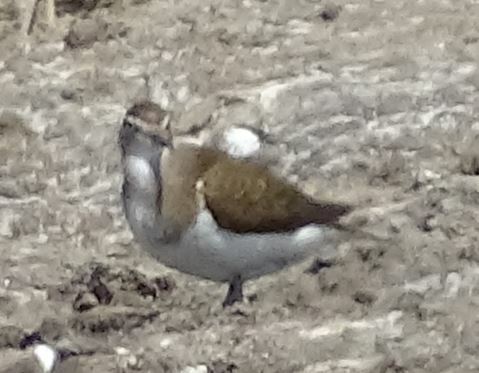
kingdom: Animalia
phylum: Chordata
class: Aves
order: Charadriiformes
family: Scolopacidae
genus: Actitis
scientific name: Actitis hypoleucos
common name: Common sandpiper
